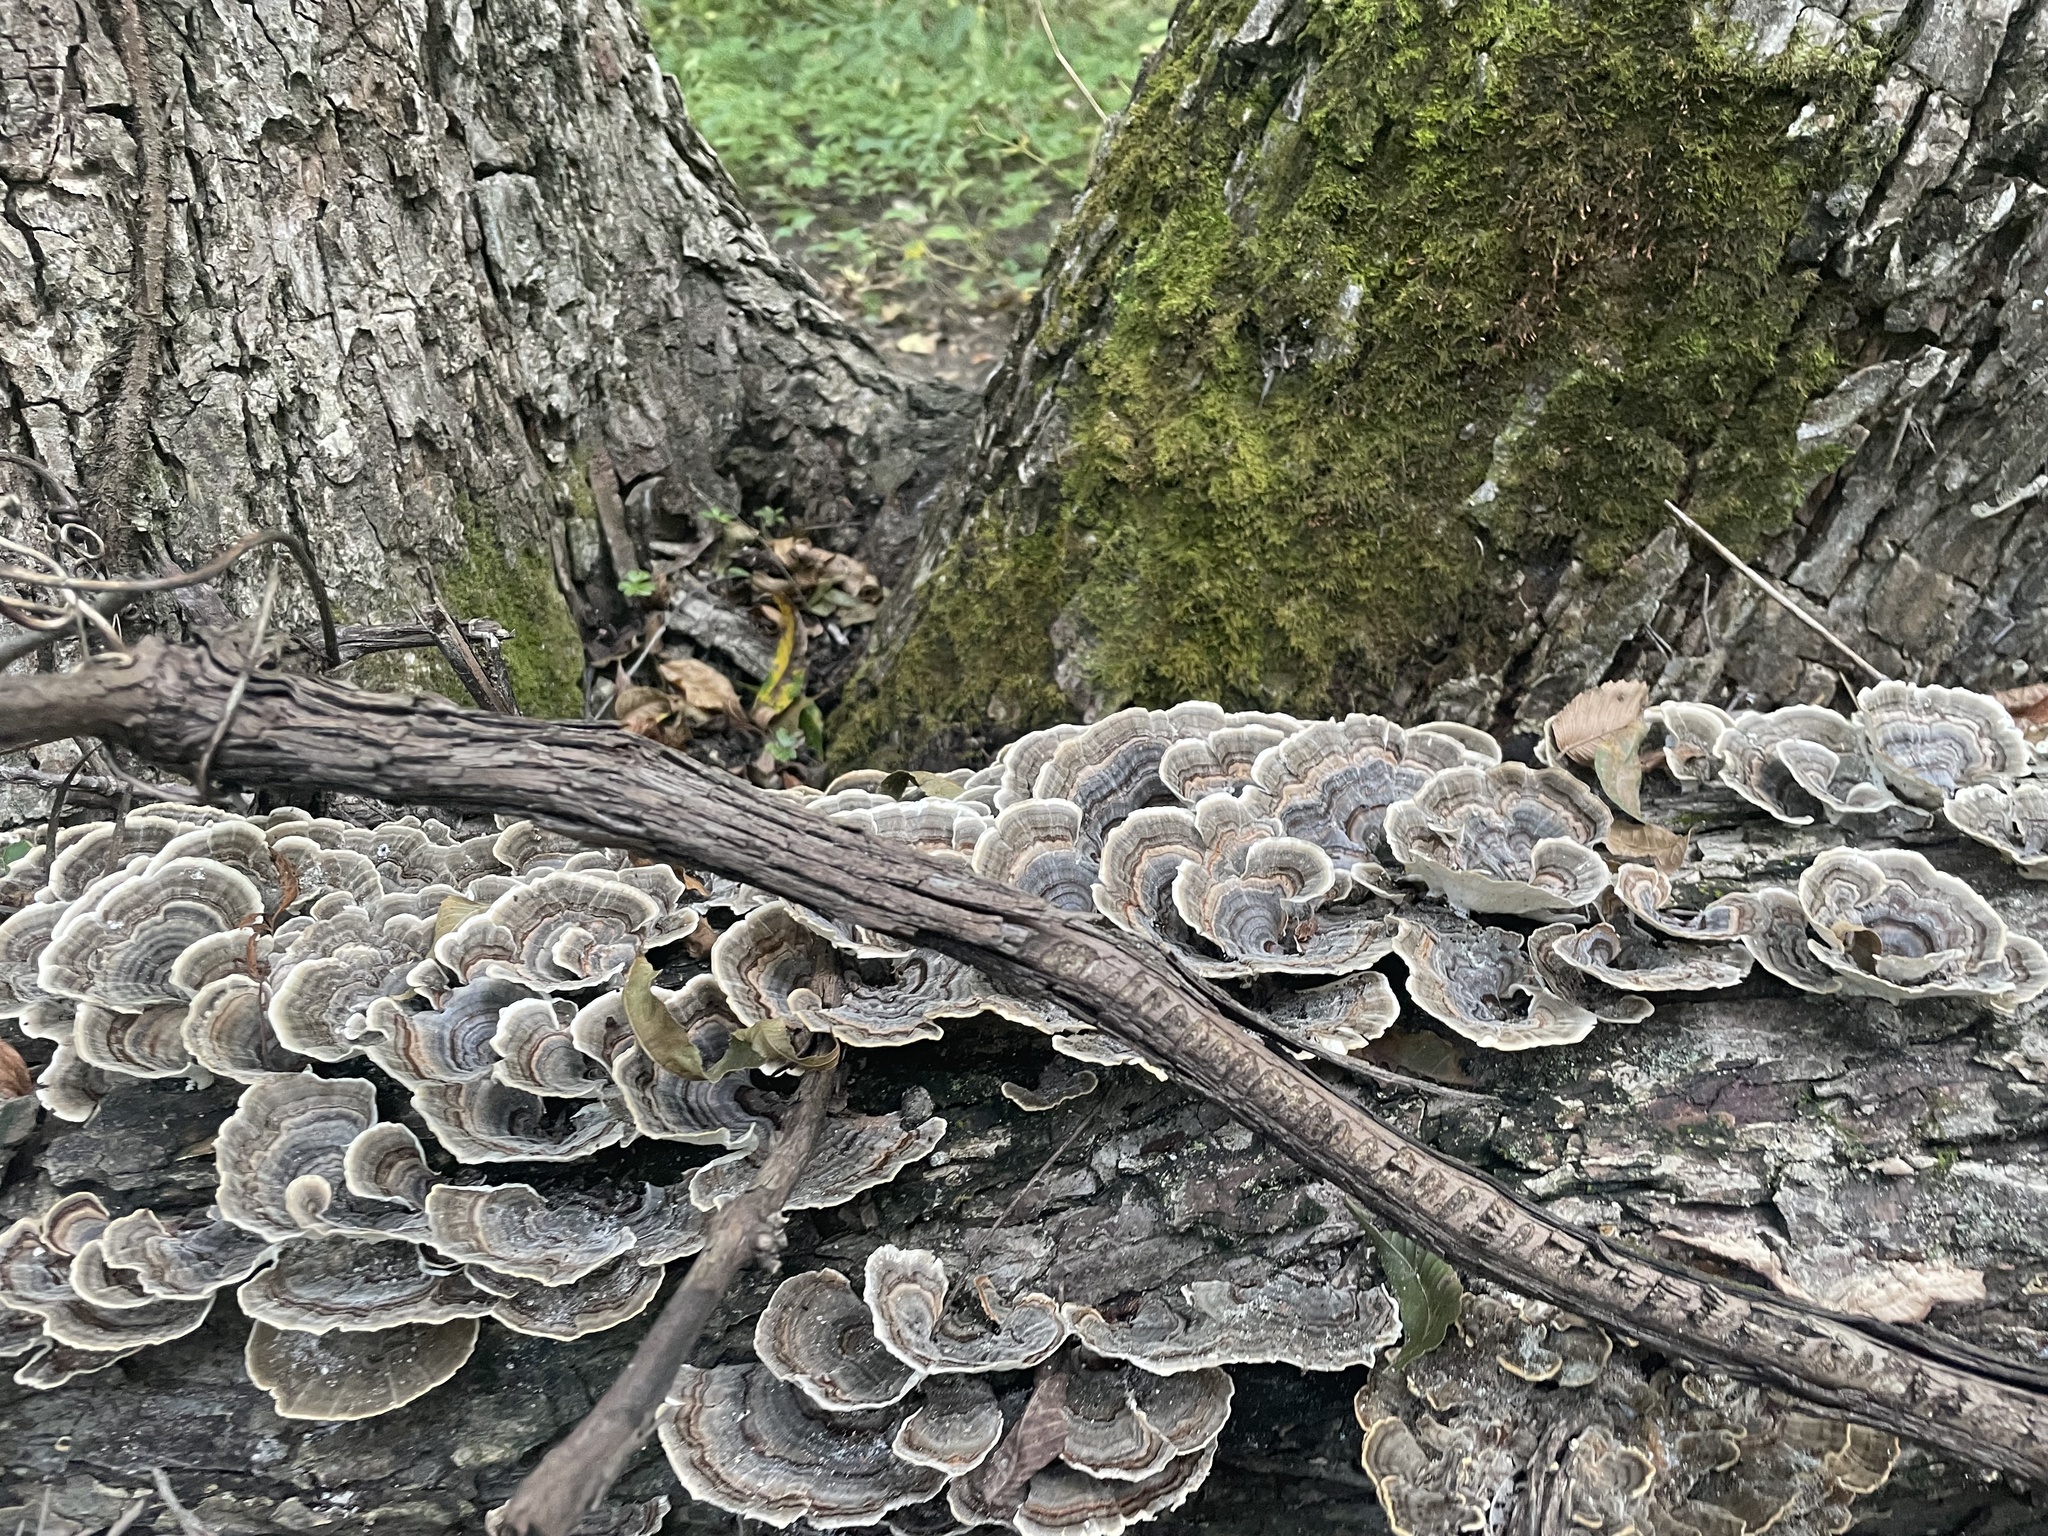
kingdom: Fungi
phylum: Basidiomycota
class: Agaricomycetes
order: Polyporales
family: Polyporaceae
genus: Trametes
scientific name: Trametes versicolor
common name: Turkeytail
